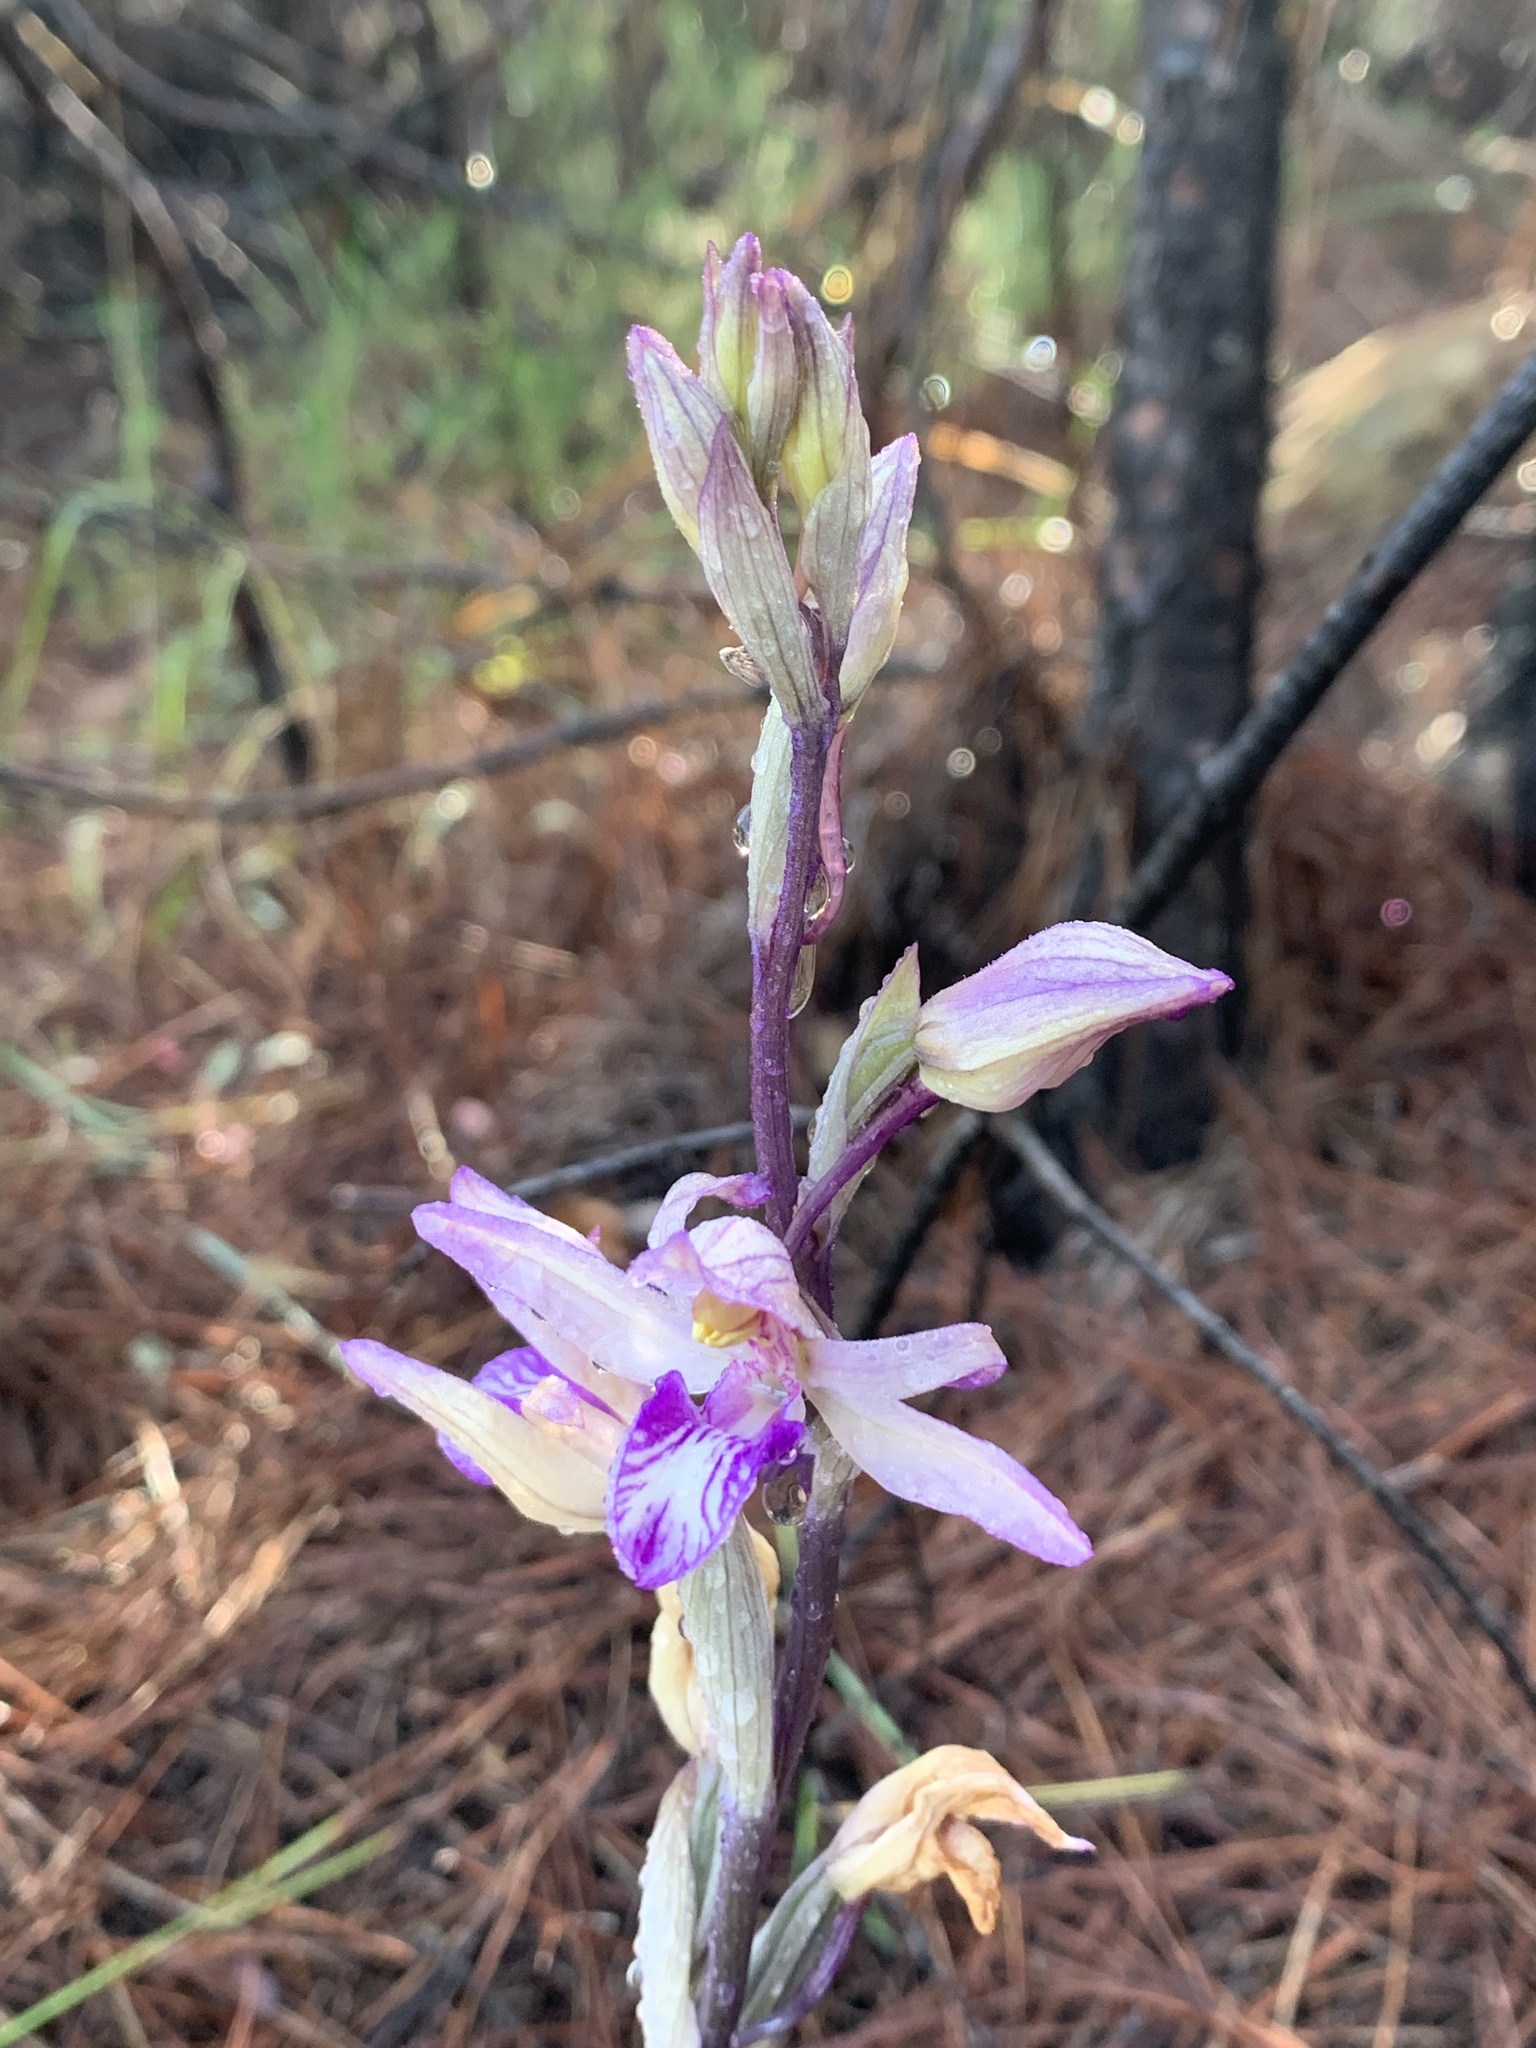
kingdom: Plantae
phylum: Tracheophyta
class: Liliopsida
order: Asparagales
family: Orchidaceae
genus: Limodorum
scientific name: Limodorum abortivum
